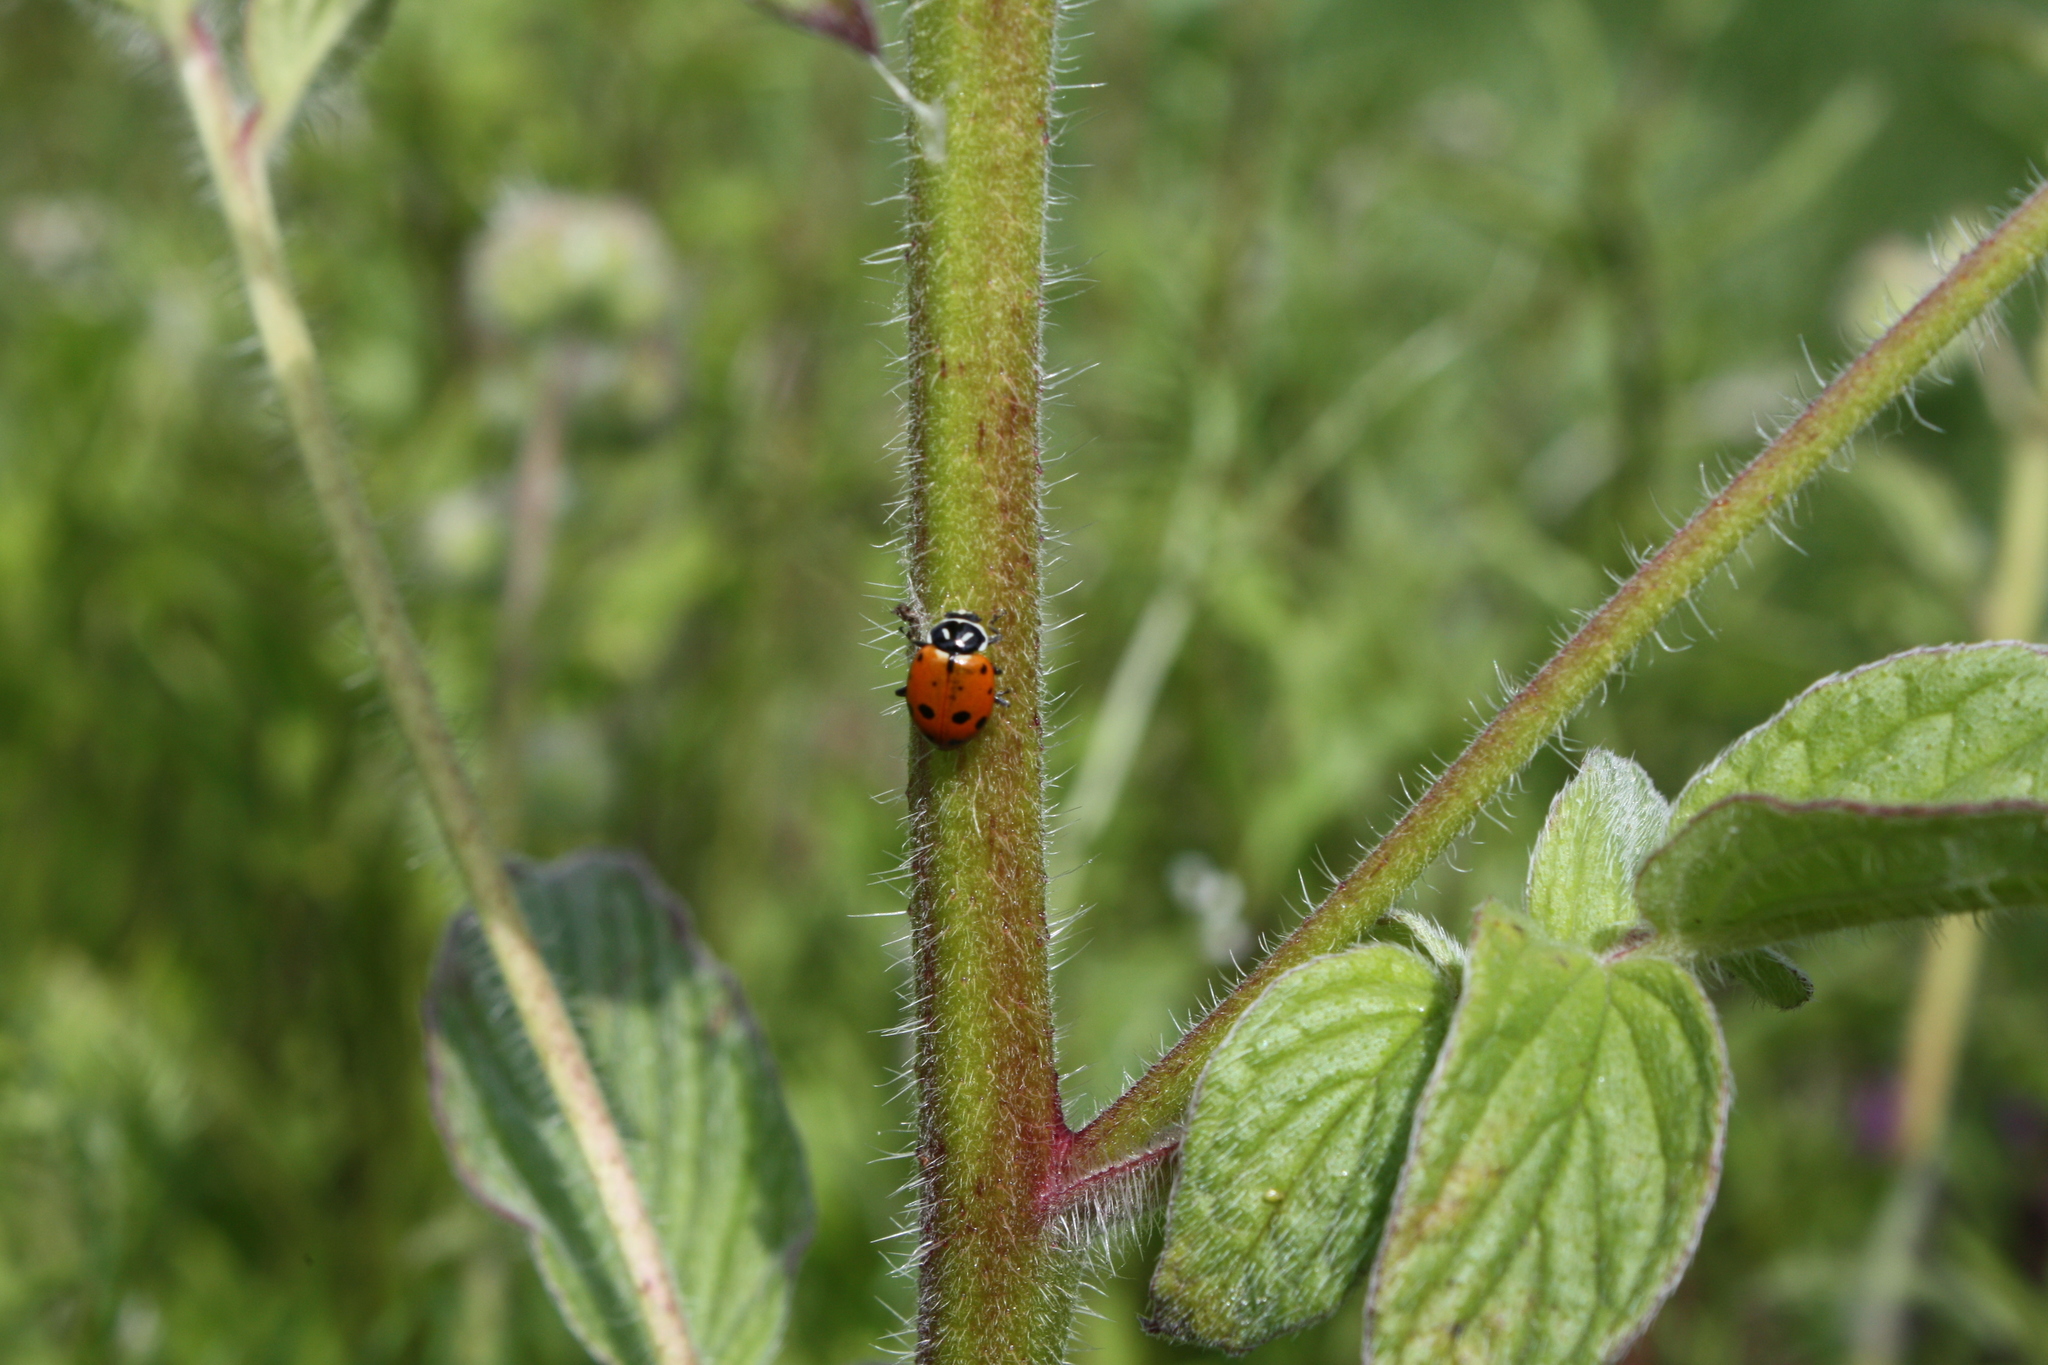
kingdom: Animalia
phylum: Arthropoda
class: Insecta
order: Coleoptera
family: Coccinellidae
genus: Hippodamia
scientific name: Hippodamia convergens
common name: Convergent lady beetle
